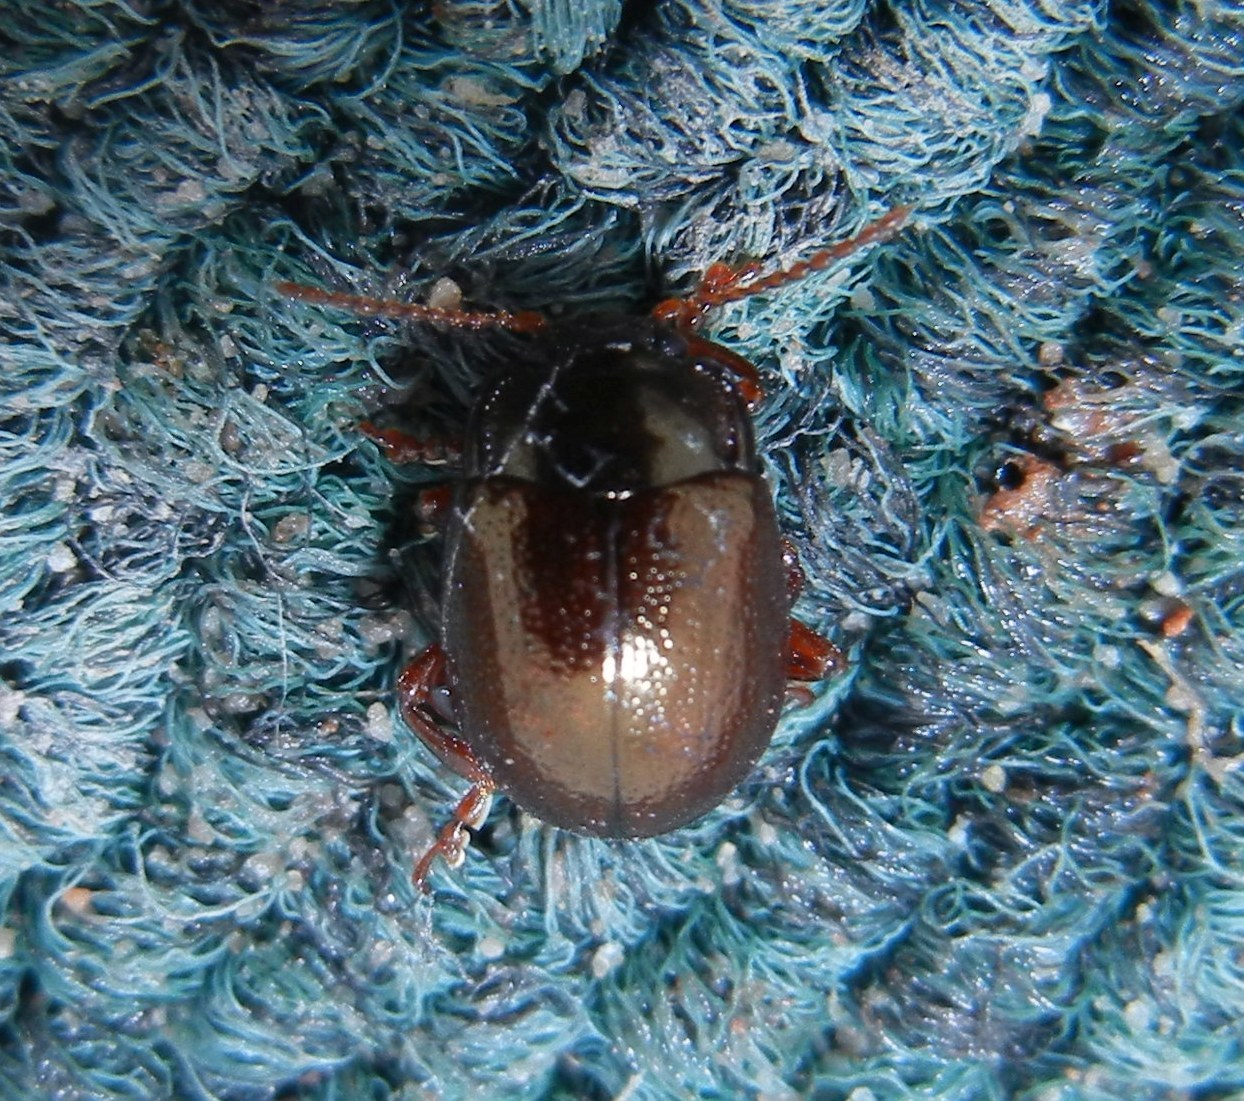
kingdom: Animalia
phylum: Arthropoda
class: Insecta
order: Coleoptera
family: Chrysomelidae
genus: Chrysolina
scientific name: Chrysolina staphylaea
